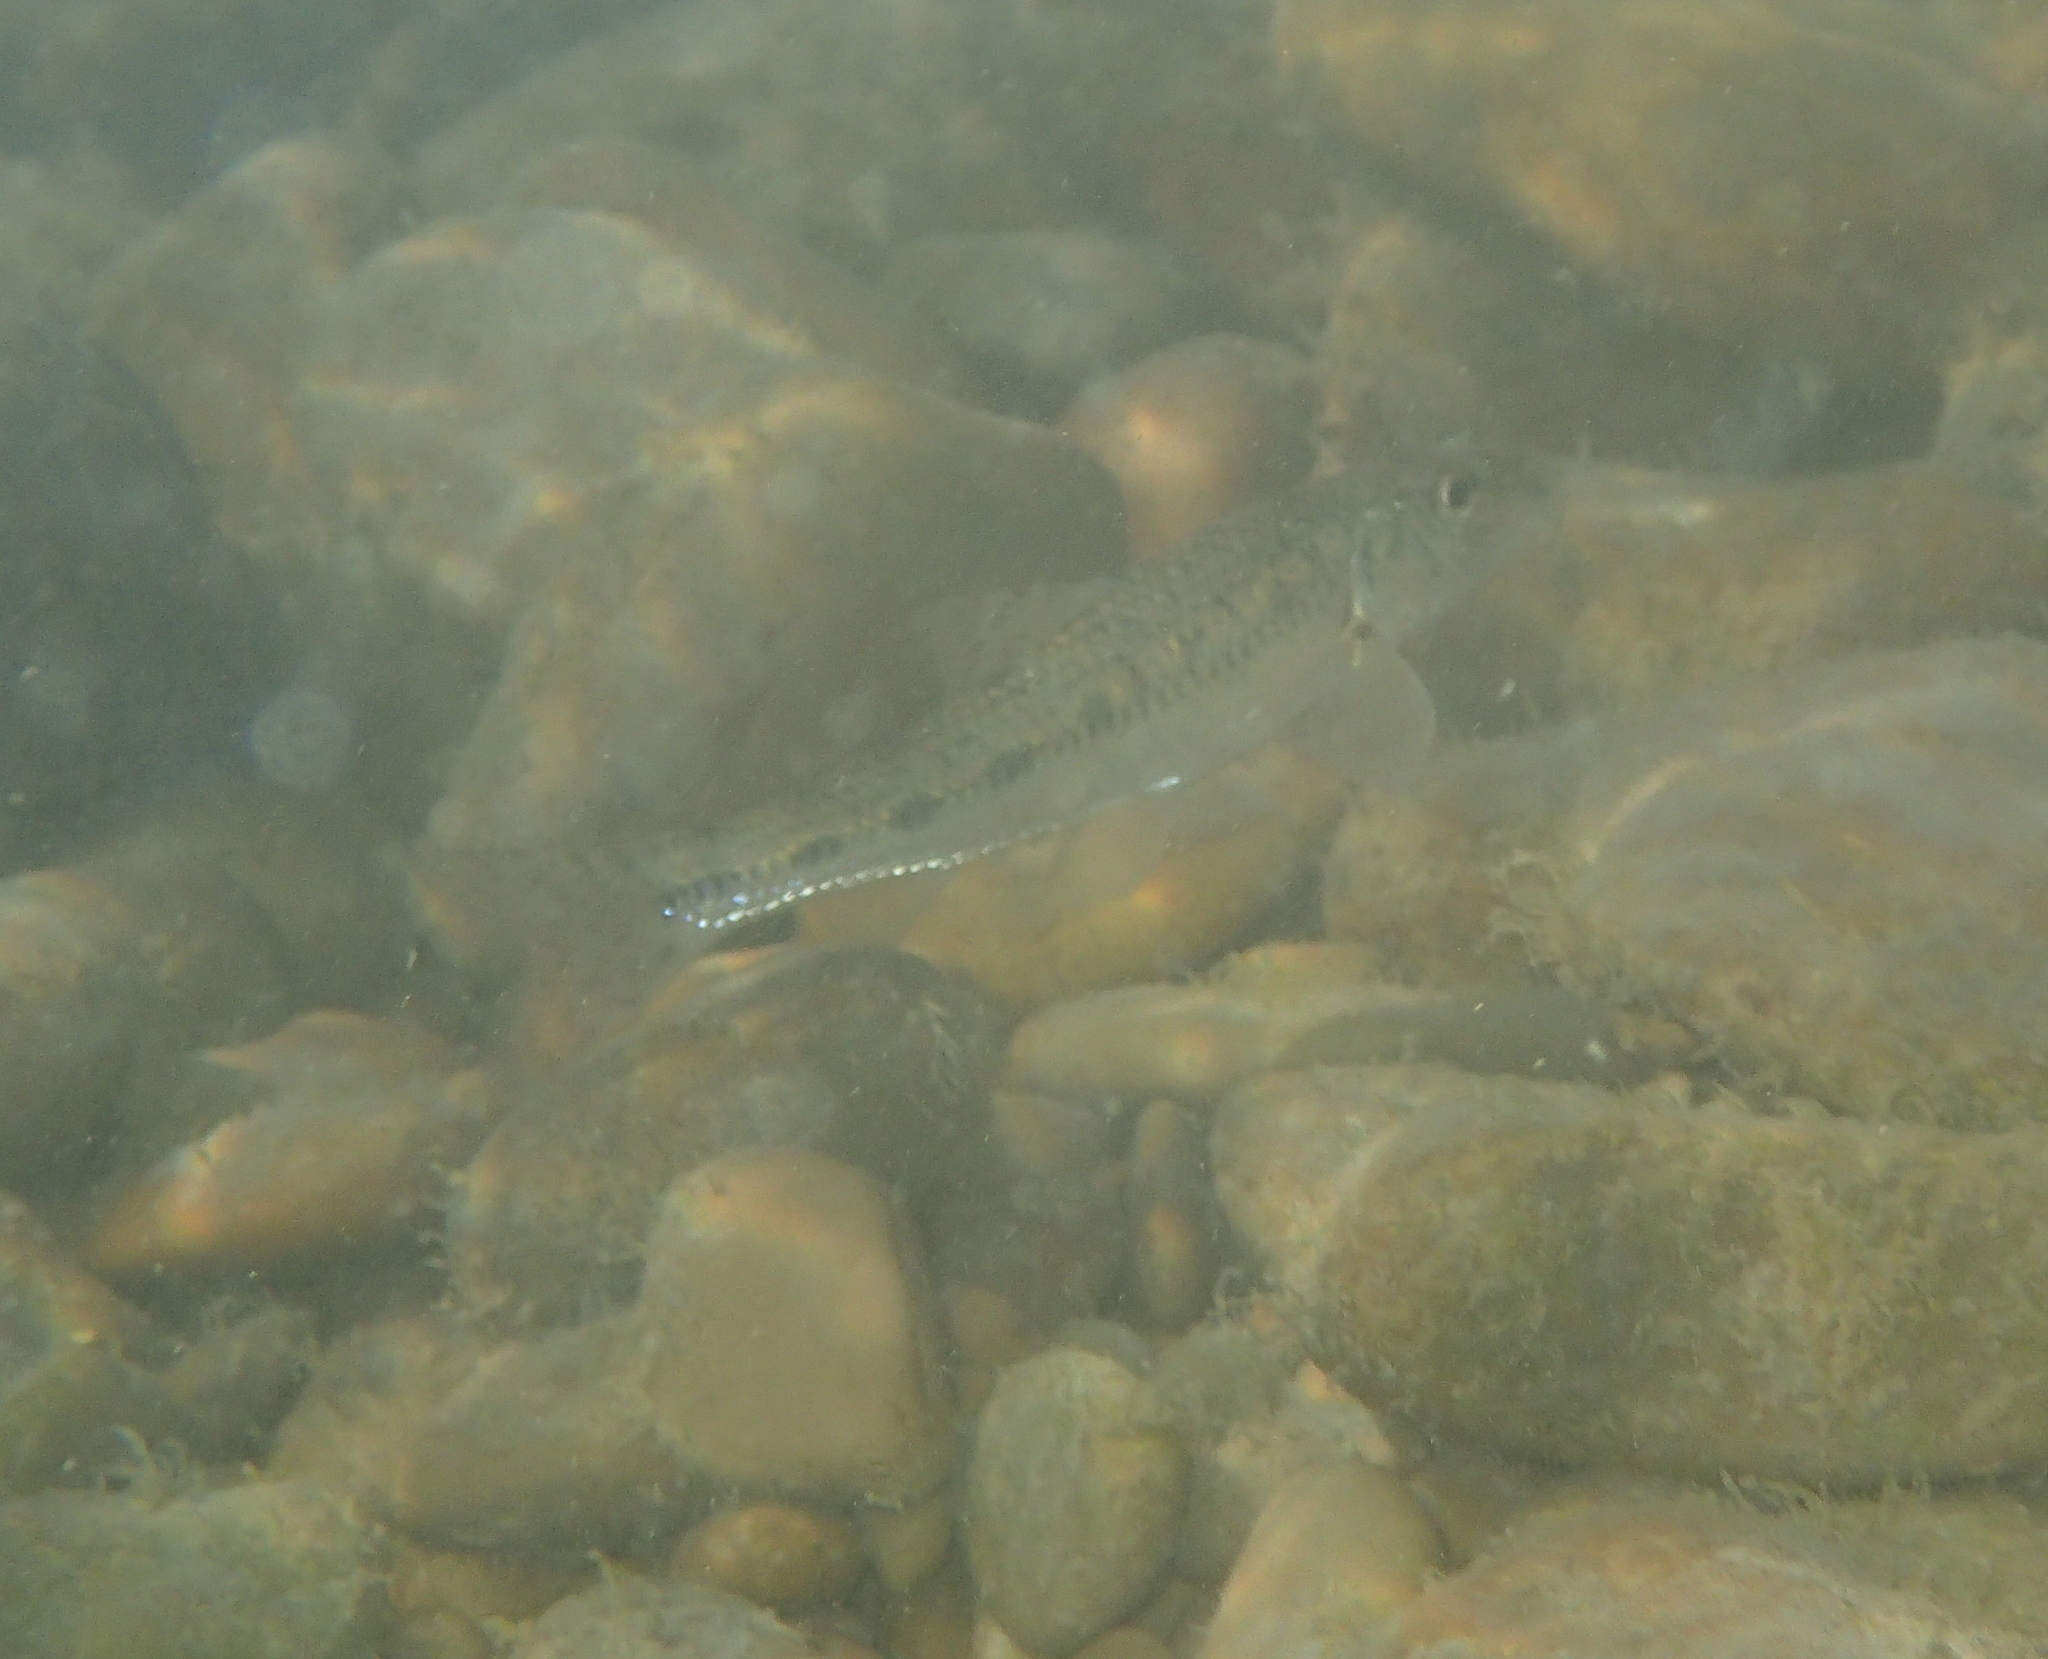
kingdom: Animalia
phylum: Chordata
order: Cypriniformes
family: Cyprinidae
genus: Gobio
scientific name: Gobio gobio
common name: Gudgeon
